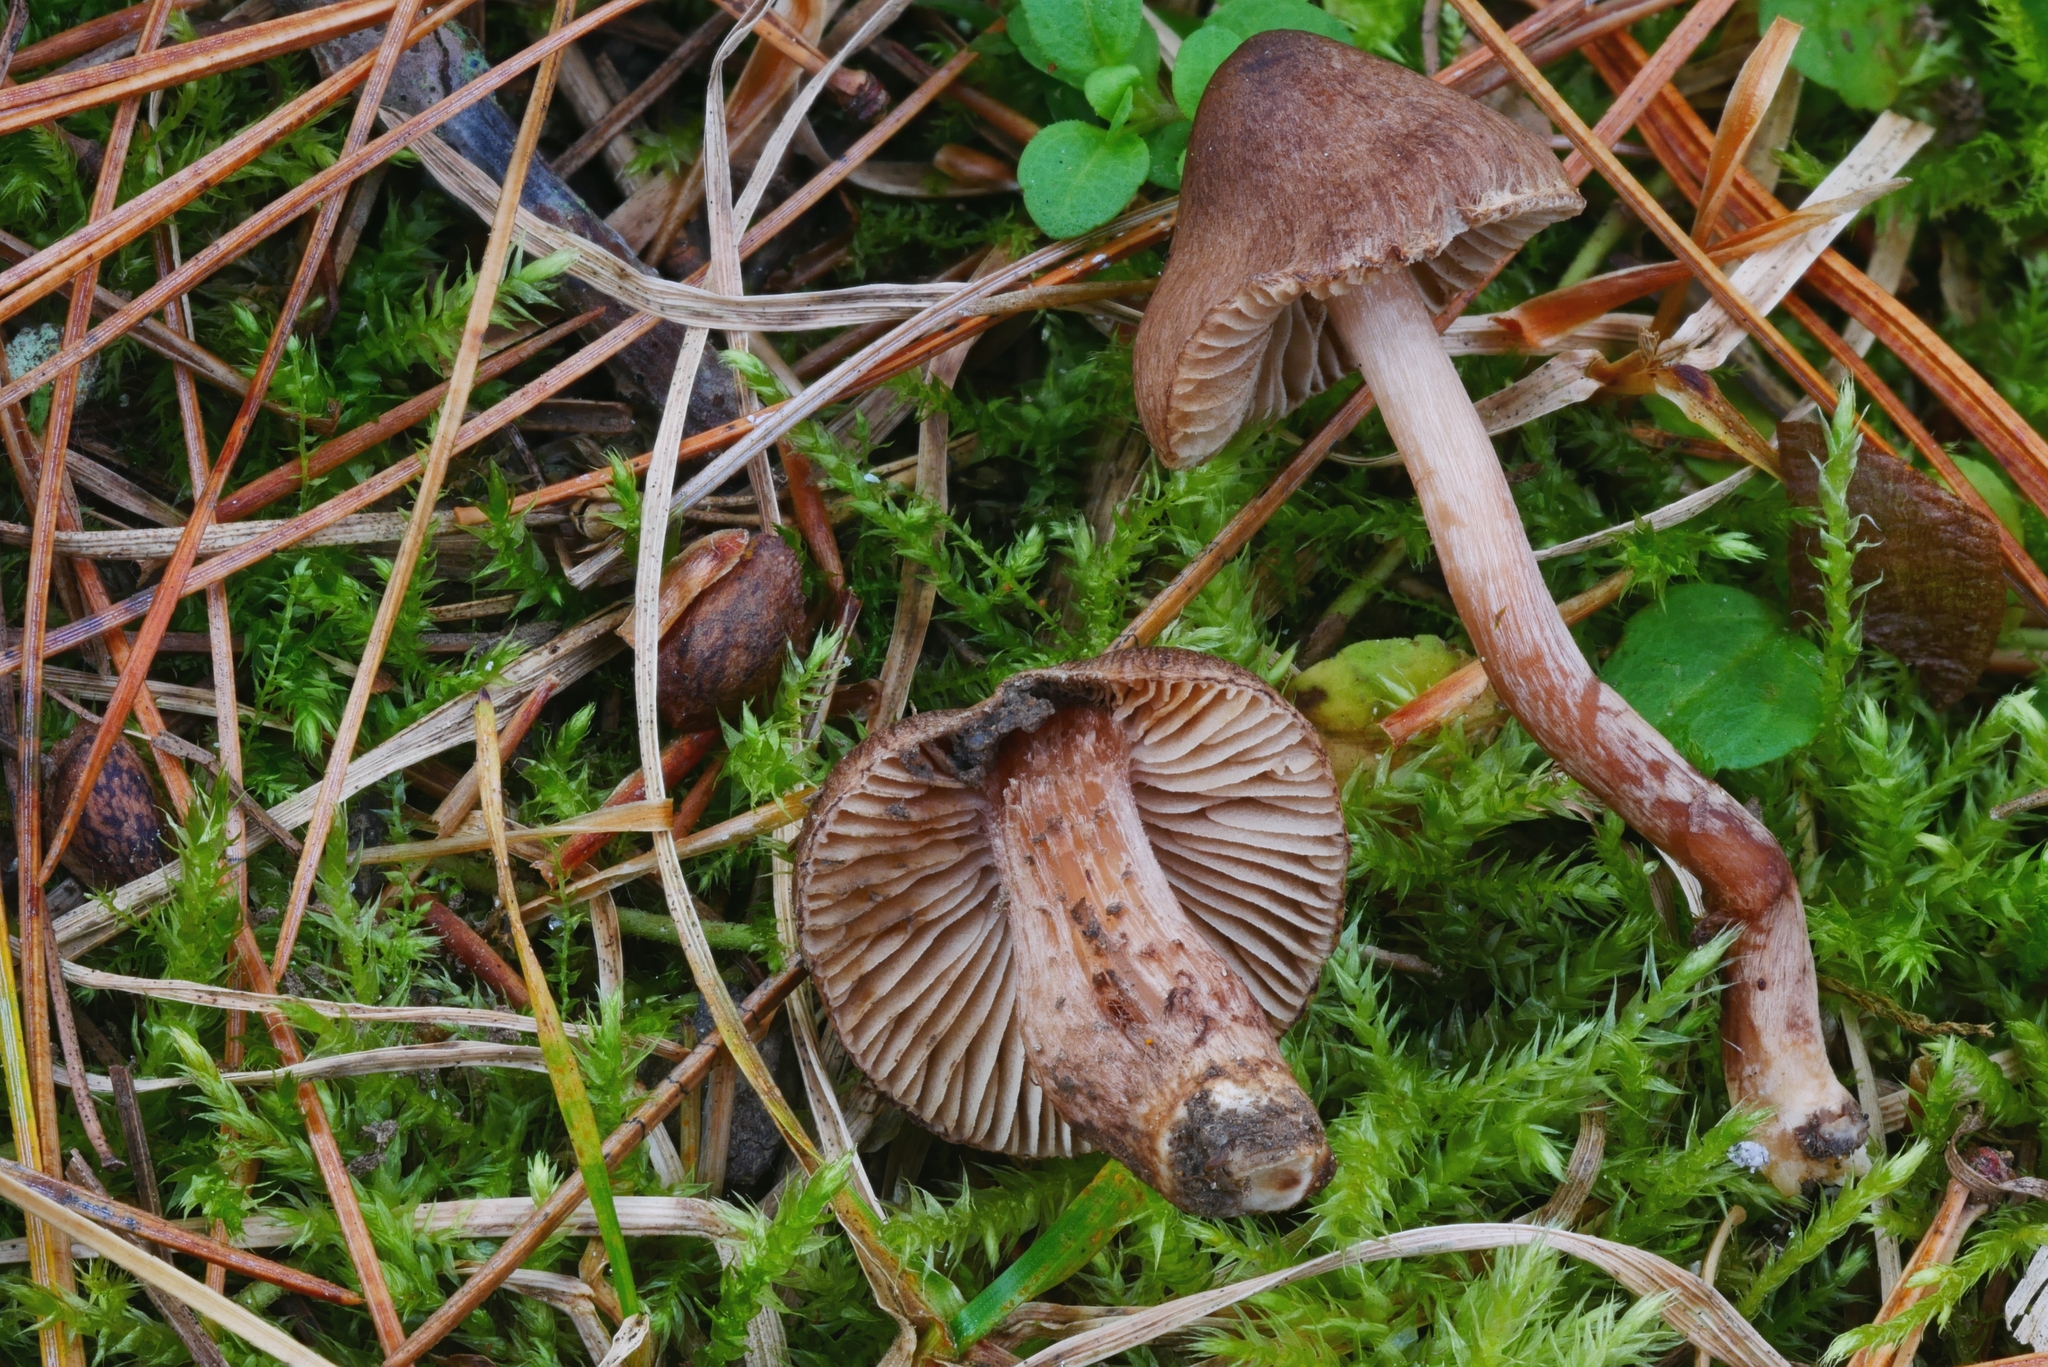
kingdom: Fungi
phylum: Basidiomycota
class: Agaricomycetes
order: Agaricales
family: Inocybaceae
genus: Inocybe
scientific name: Inocybe porcorum
